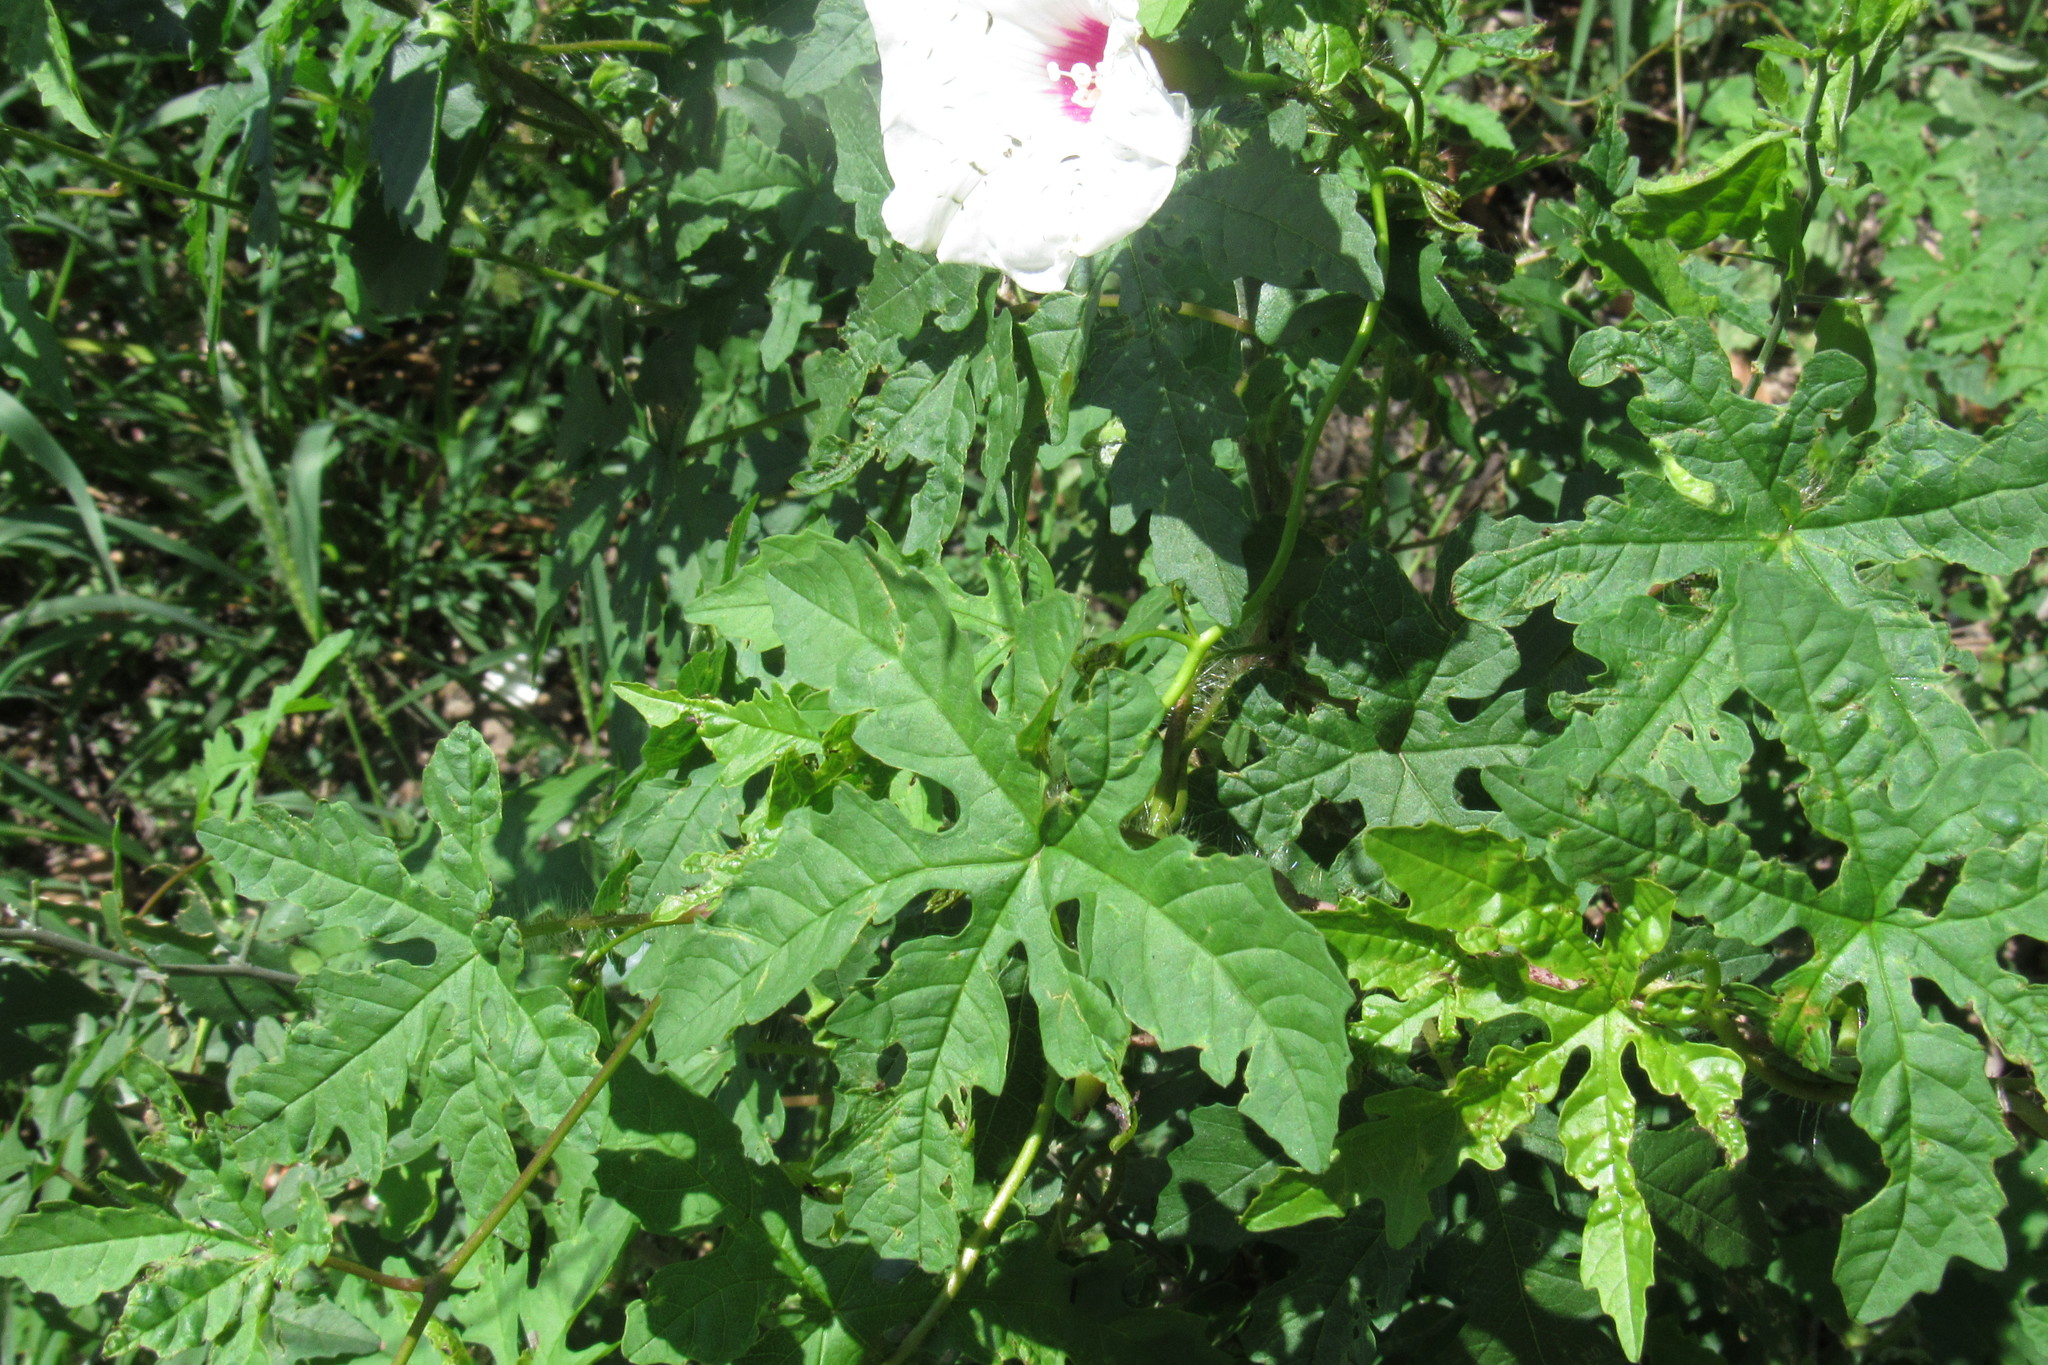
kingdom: Plantae
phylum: Tracheophyta
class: Magnoliopsida
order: Solanales
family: Convolvulaceae
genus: Distimake
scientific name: Distimake dissectus
